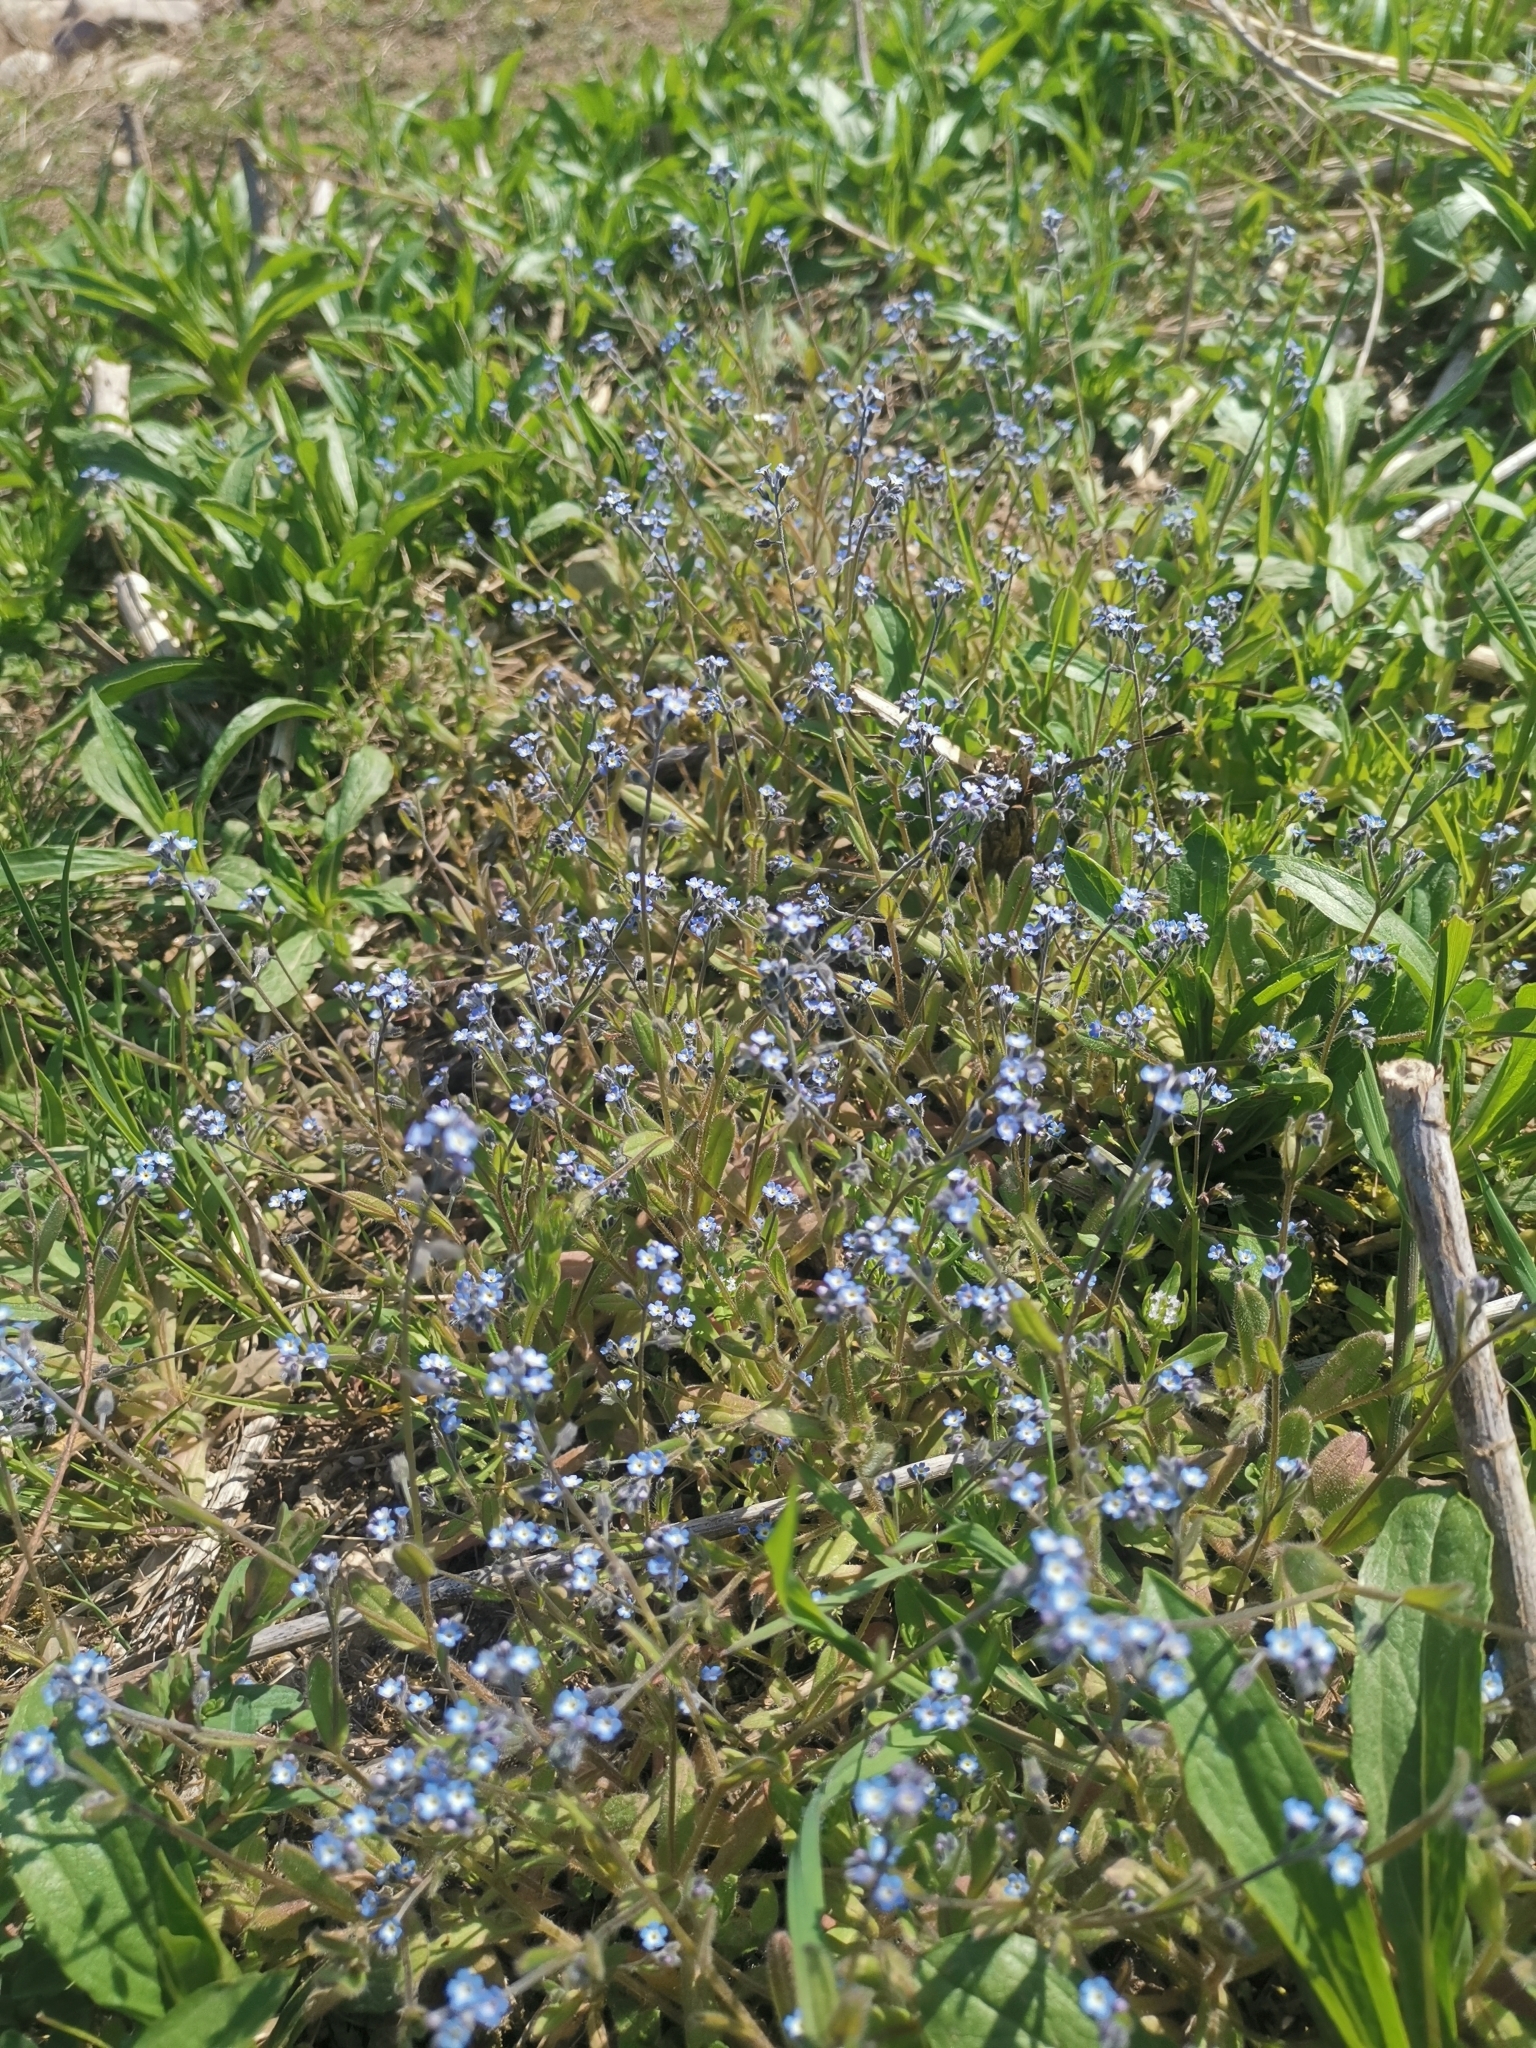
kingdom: Plantae
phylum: Tracheophyta
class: Magnoliopsida
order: Boraginales
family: Boraginaceae
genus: Myosotis
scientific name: Myosotis arvensis
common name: Field forget-me-not
